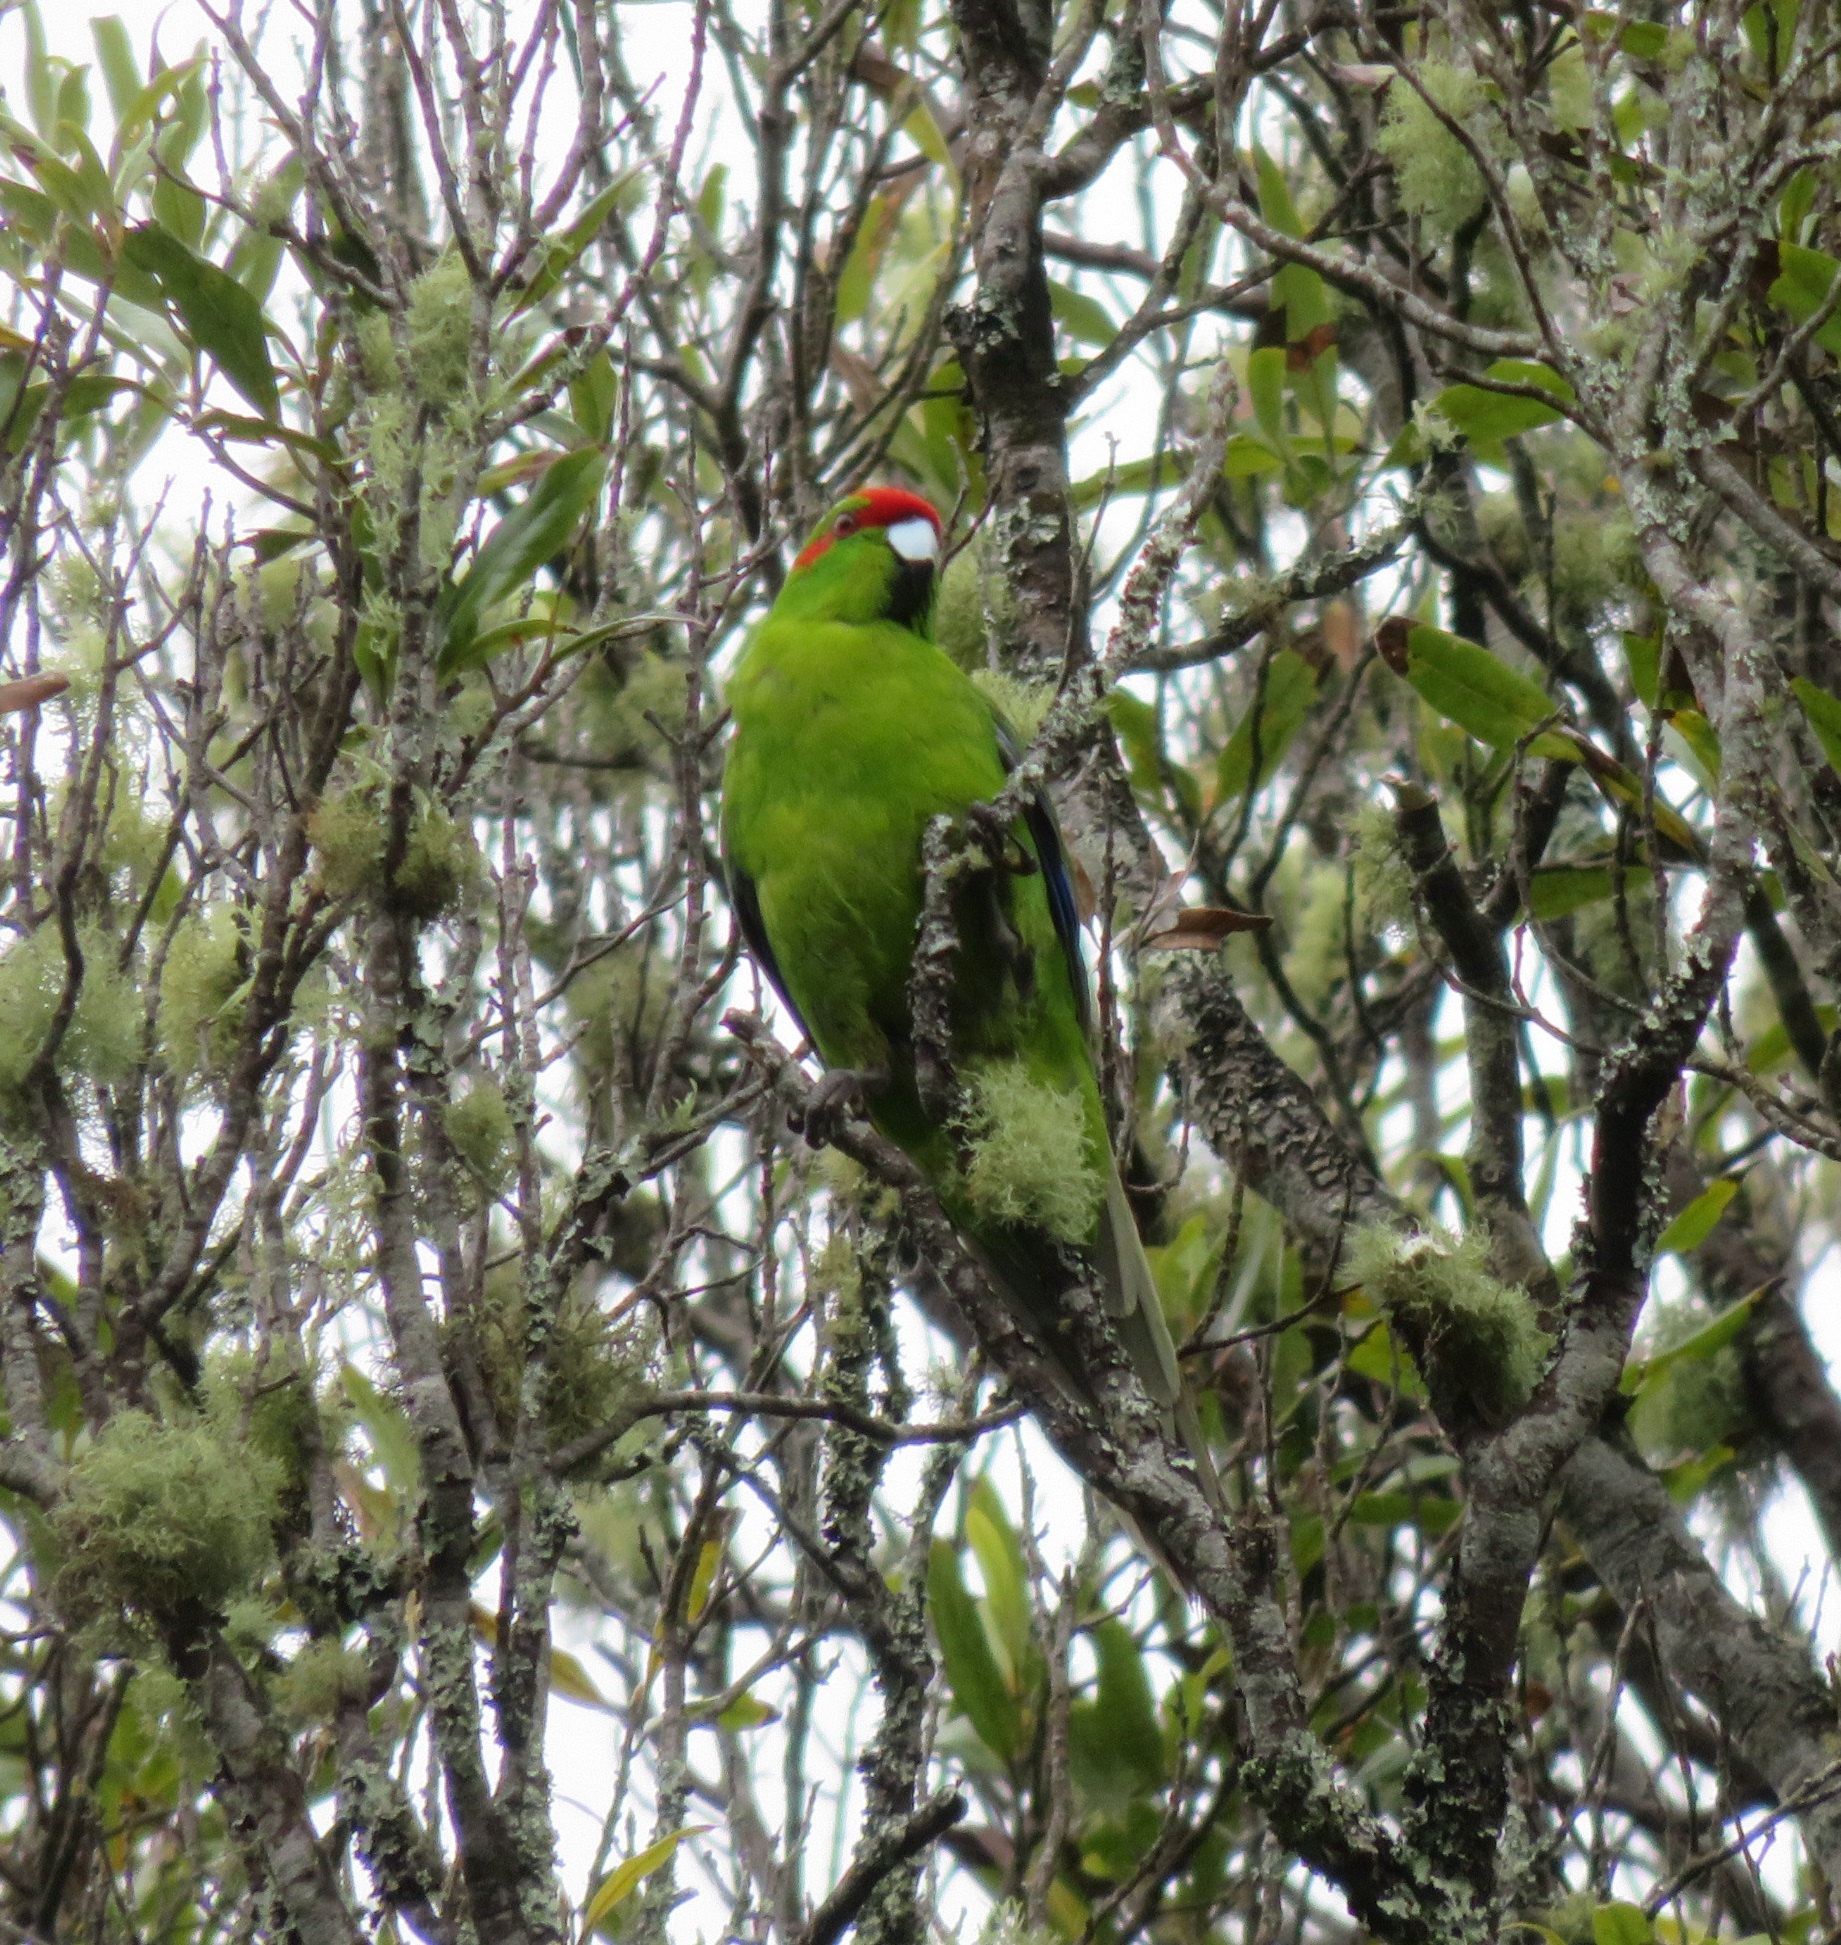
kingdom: Animalia
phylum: Chordata
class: Aves
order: Psittaciformes
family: Psittacidae
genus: Cyanoramphus
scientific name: Cyanoramphus novaezelandiae
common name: Red-fronted parakeet
